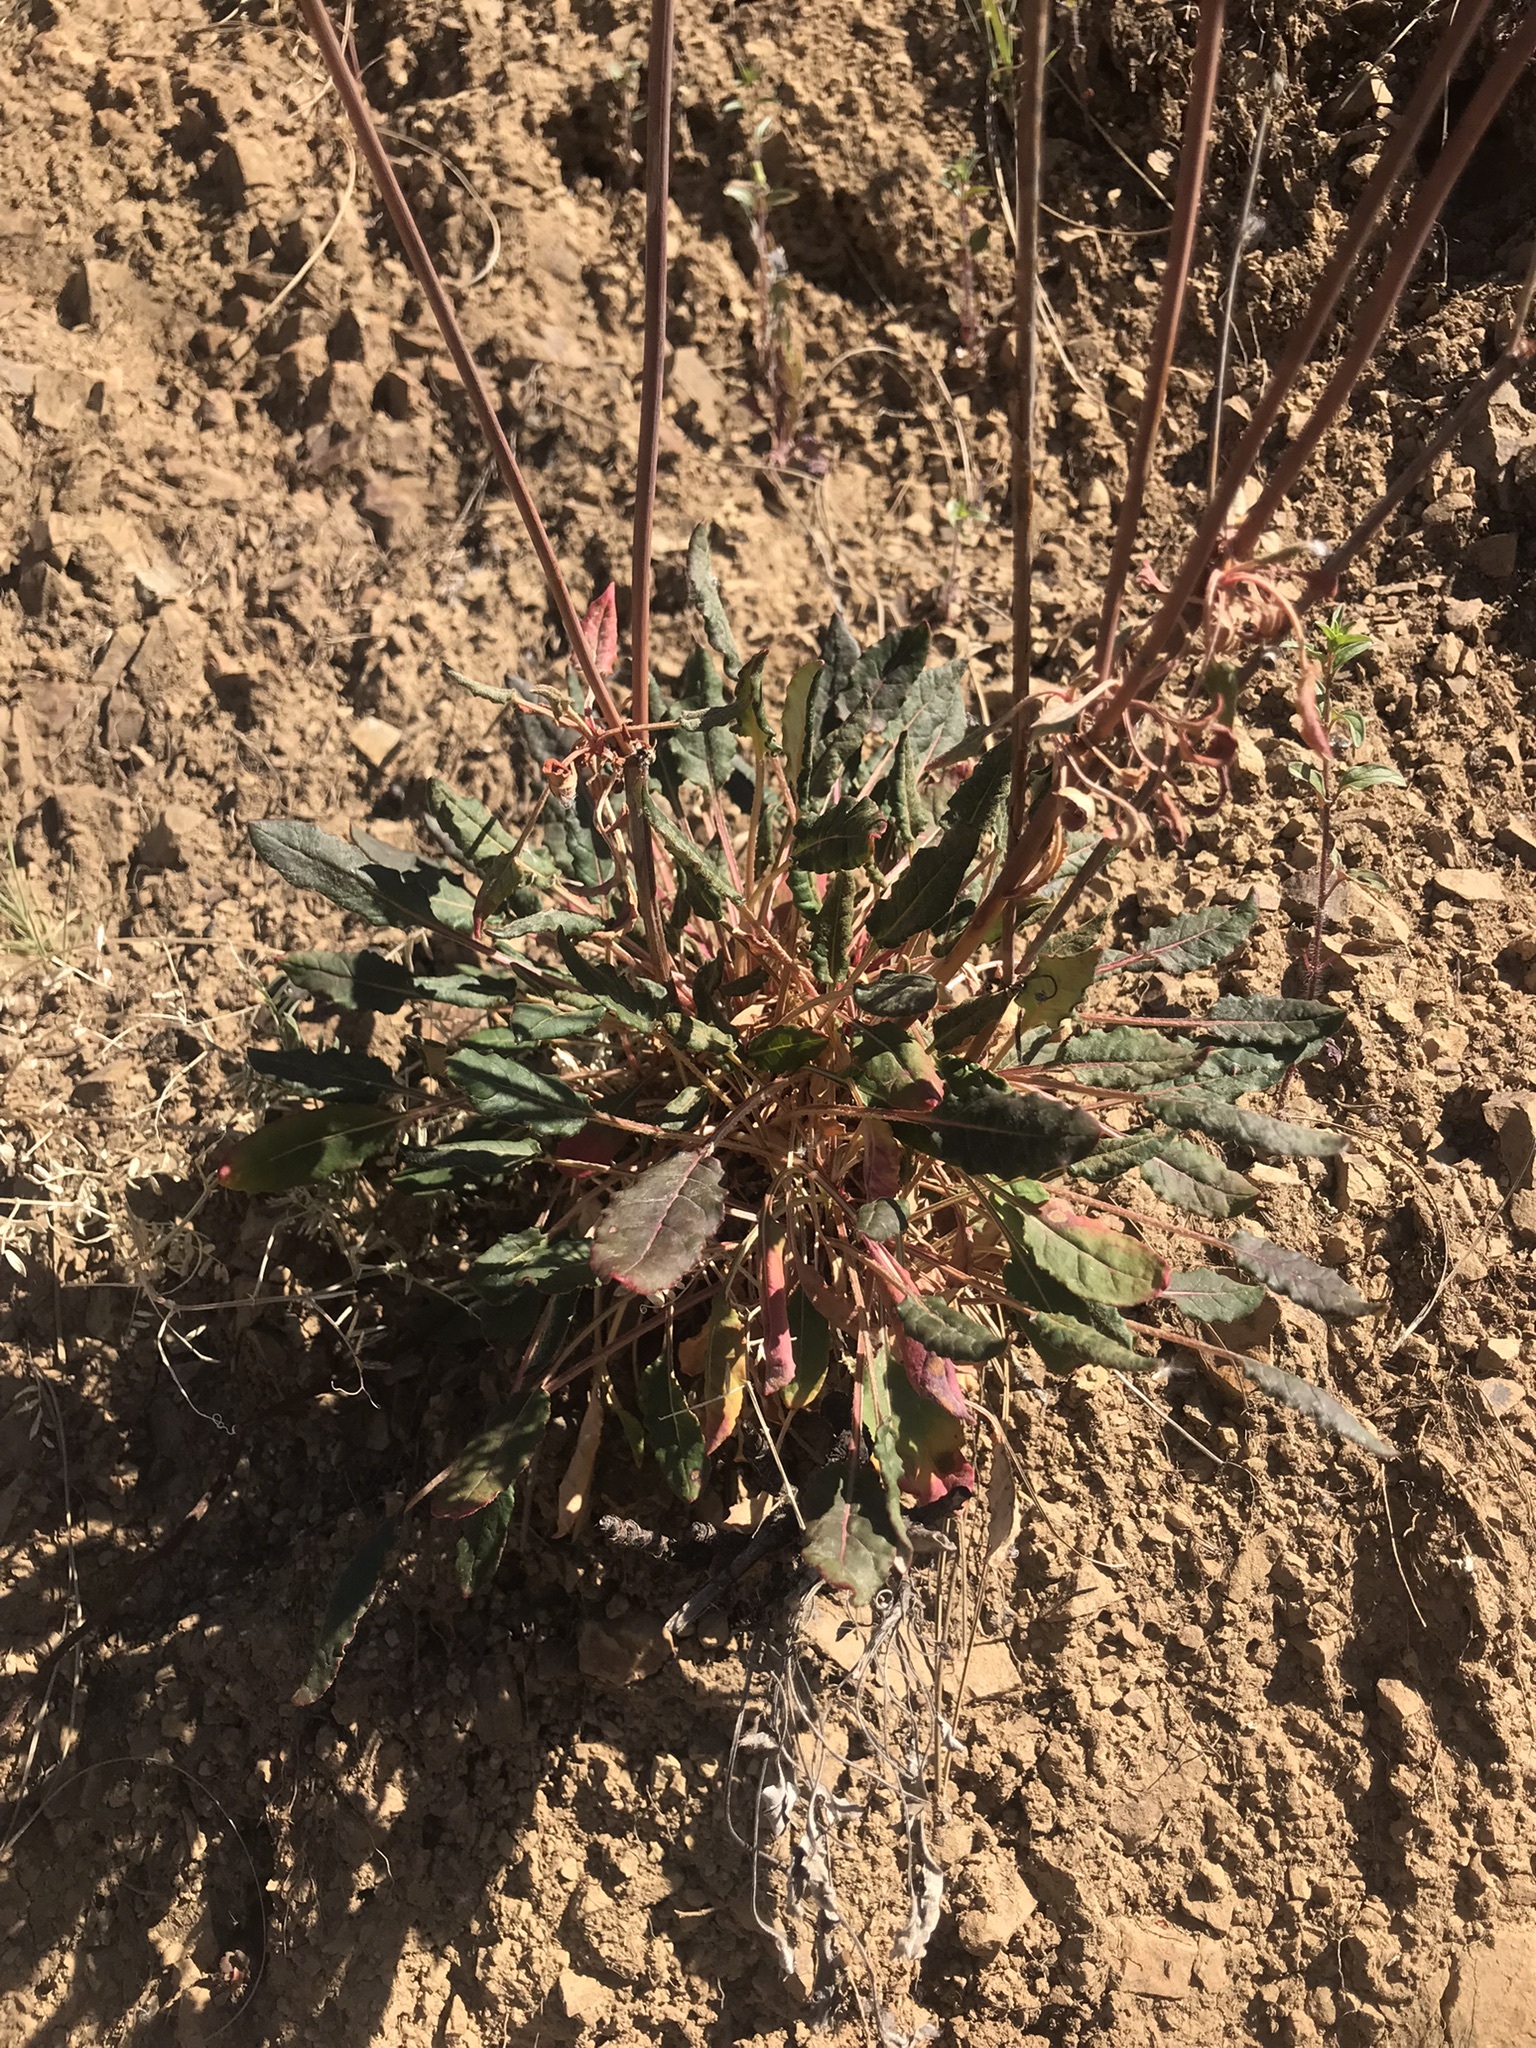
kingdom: Plantae
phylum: Tracheophyta
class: Magnoliopsida
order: Caryophyllales
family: Polygonaceae
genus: Eriogonum
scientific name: Eriogonum nudum
